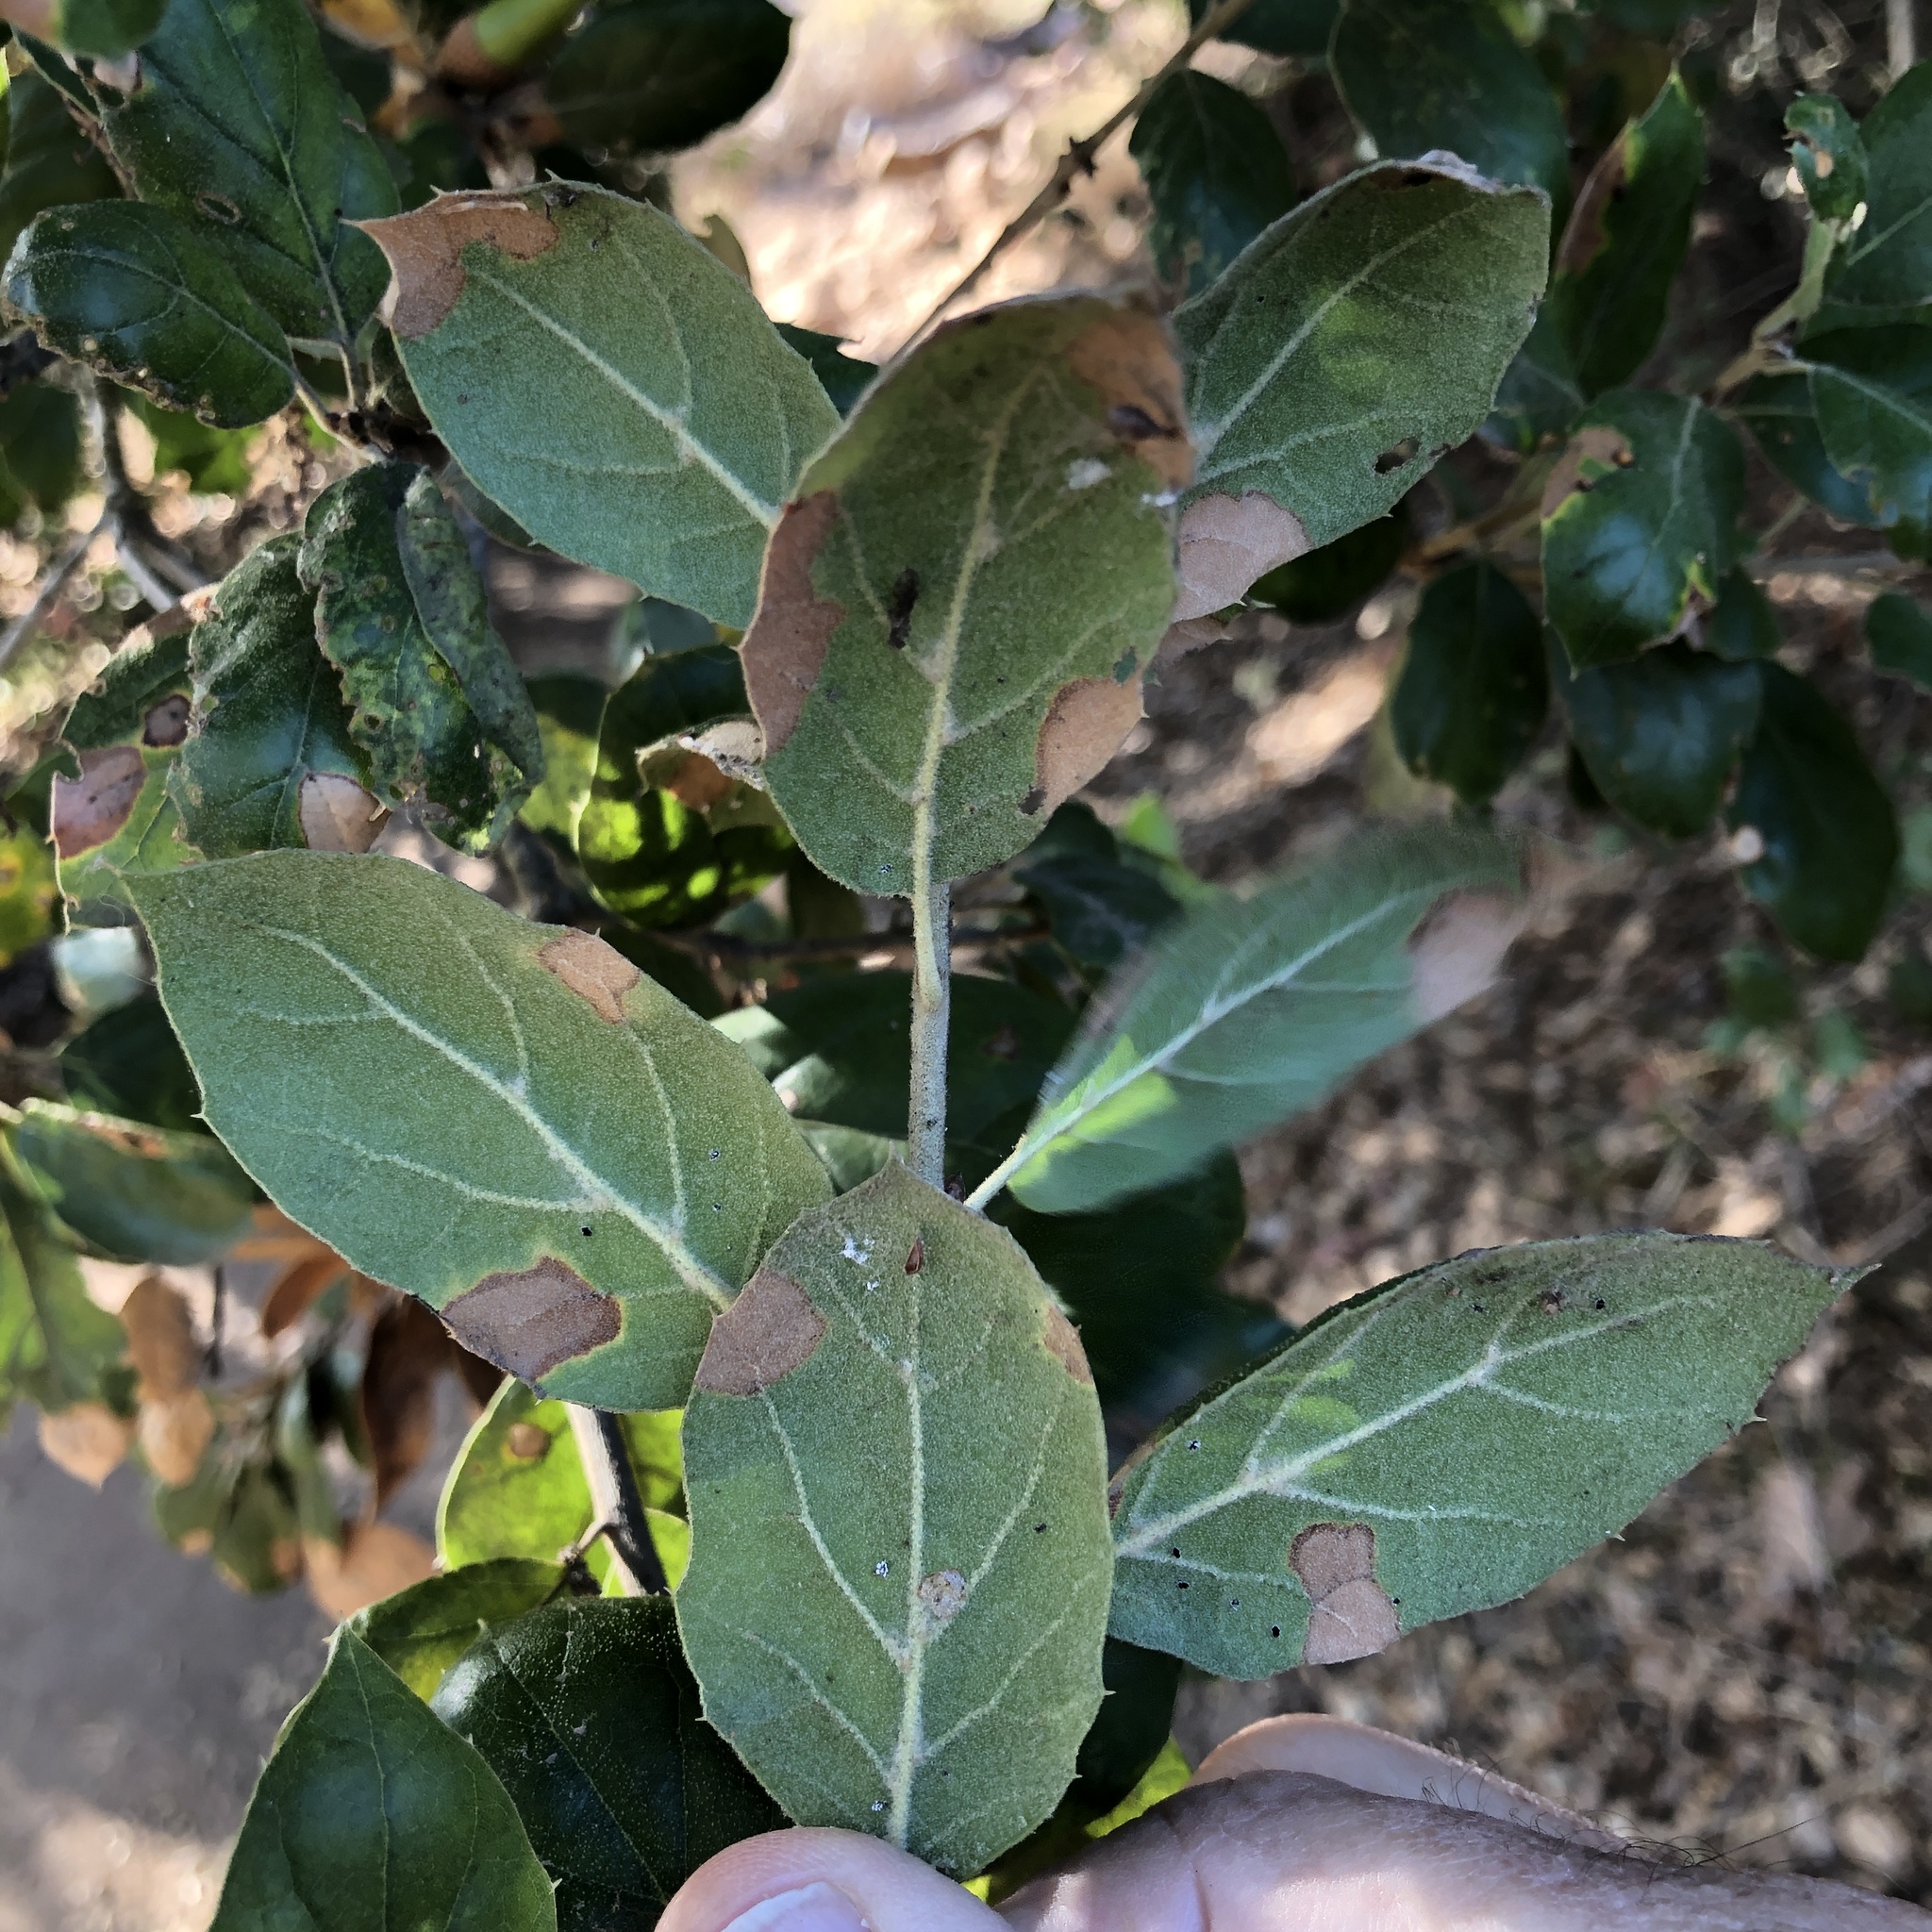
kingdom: Plantae
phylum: Tracheophyta
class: Magnoliopsida
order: Fagales
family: Fagaceae
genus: Quercus
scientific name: Quercus agrifolia
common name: California live oak
